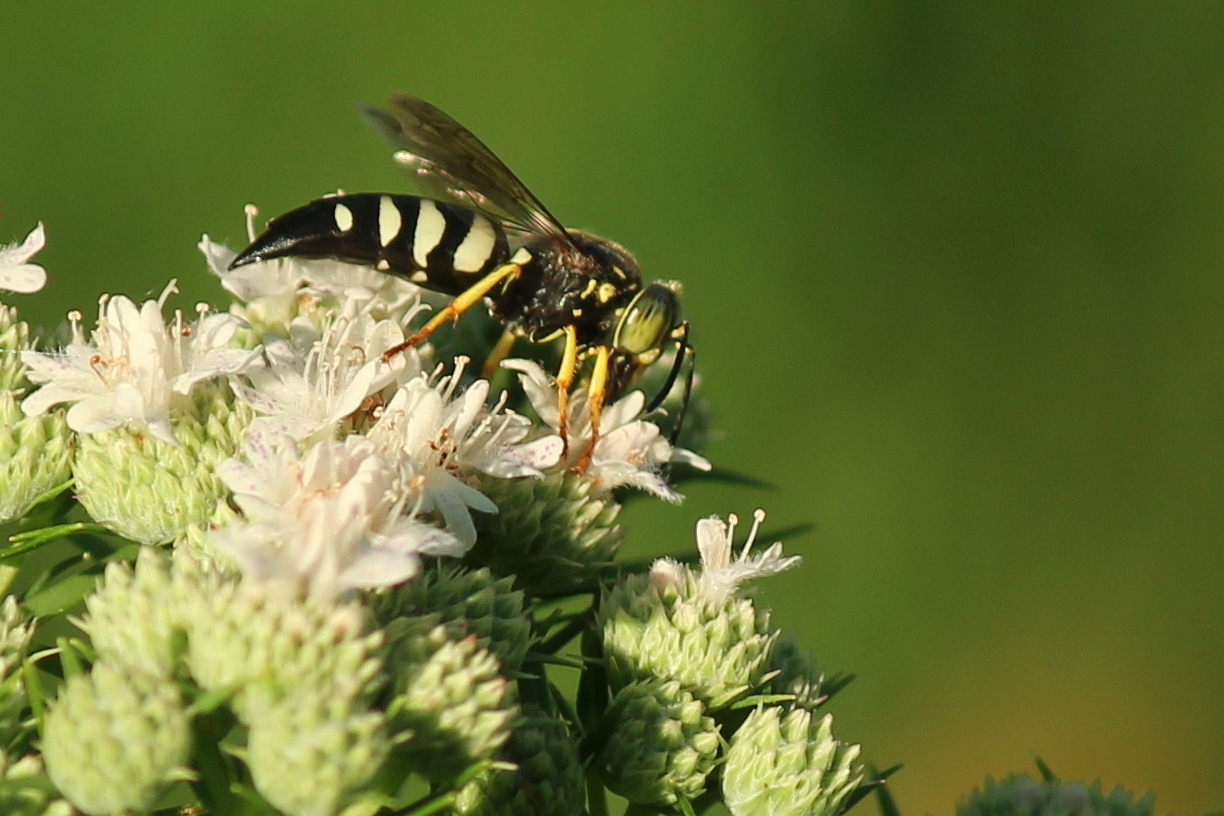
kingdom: Animalia
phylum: Arthropoda
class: Insecta
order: Hymenoptera
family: Crabronidae
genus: Bicyrtes
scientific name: Bicyrtes quadrifasciatus
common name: Four-banded stink bug hunter wasp
